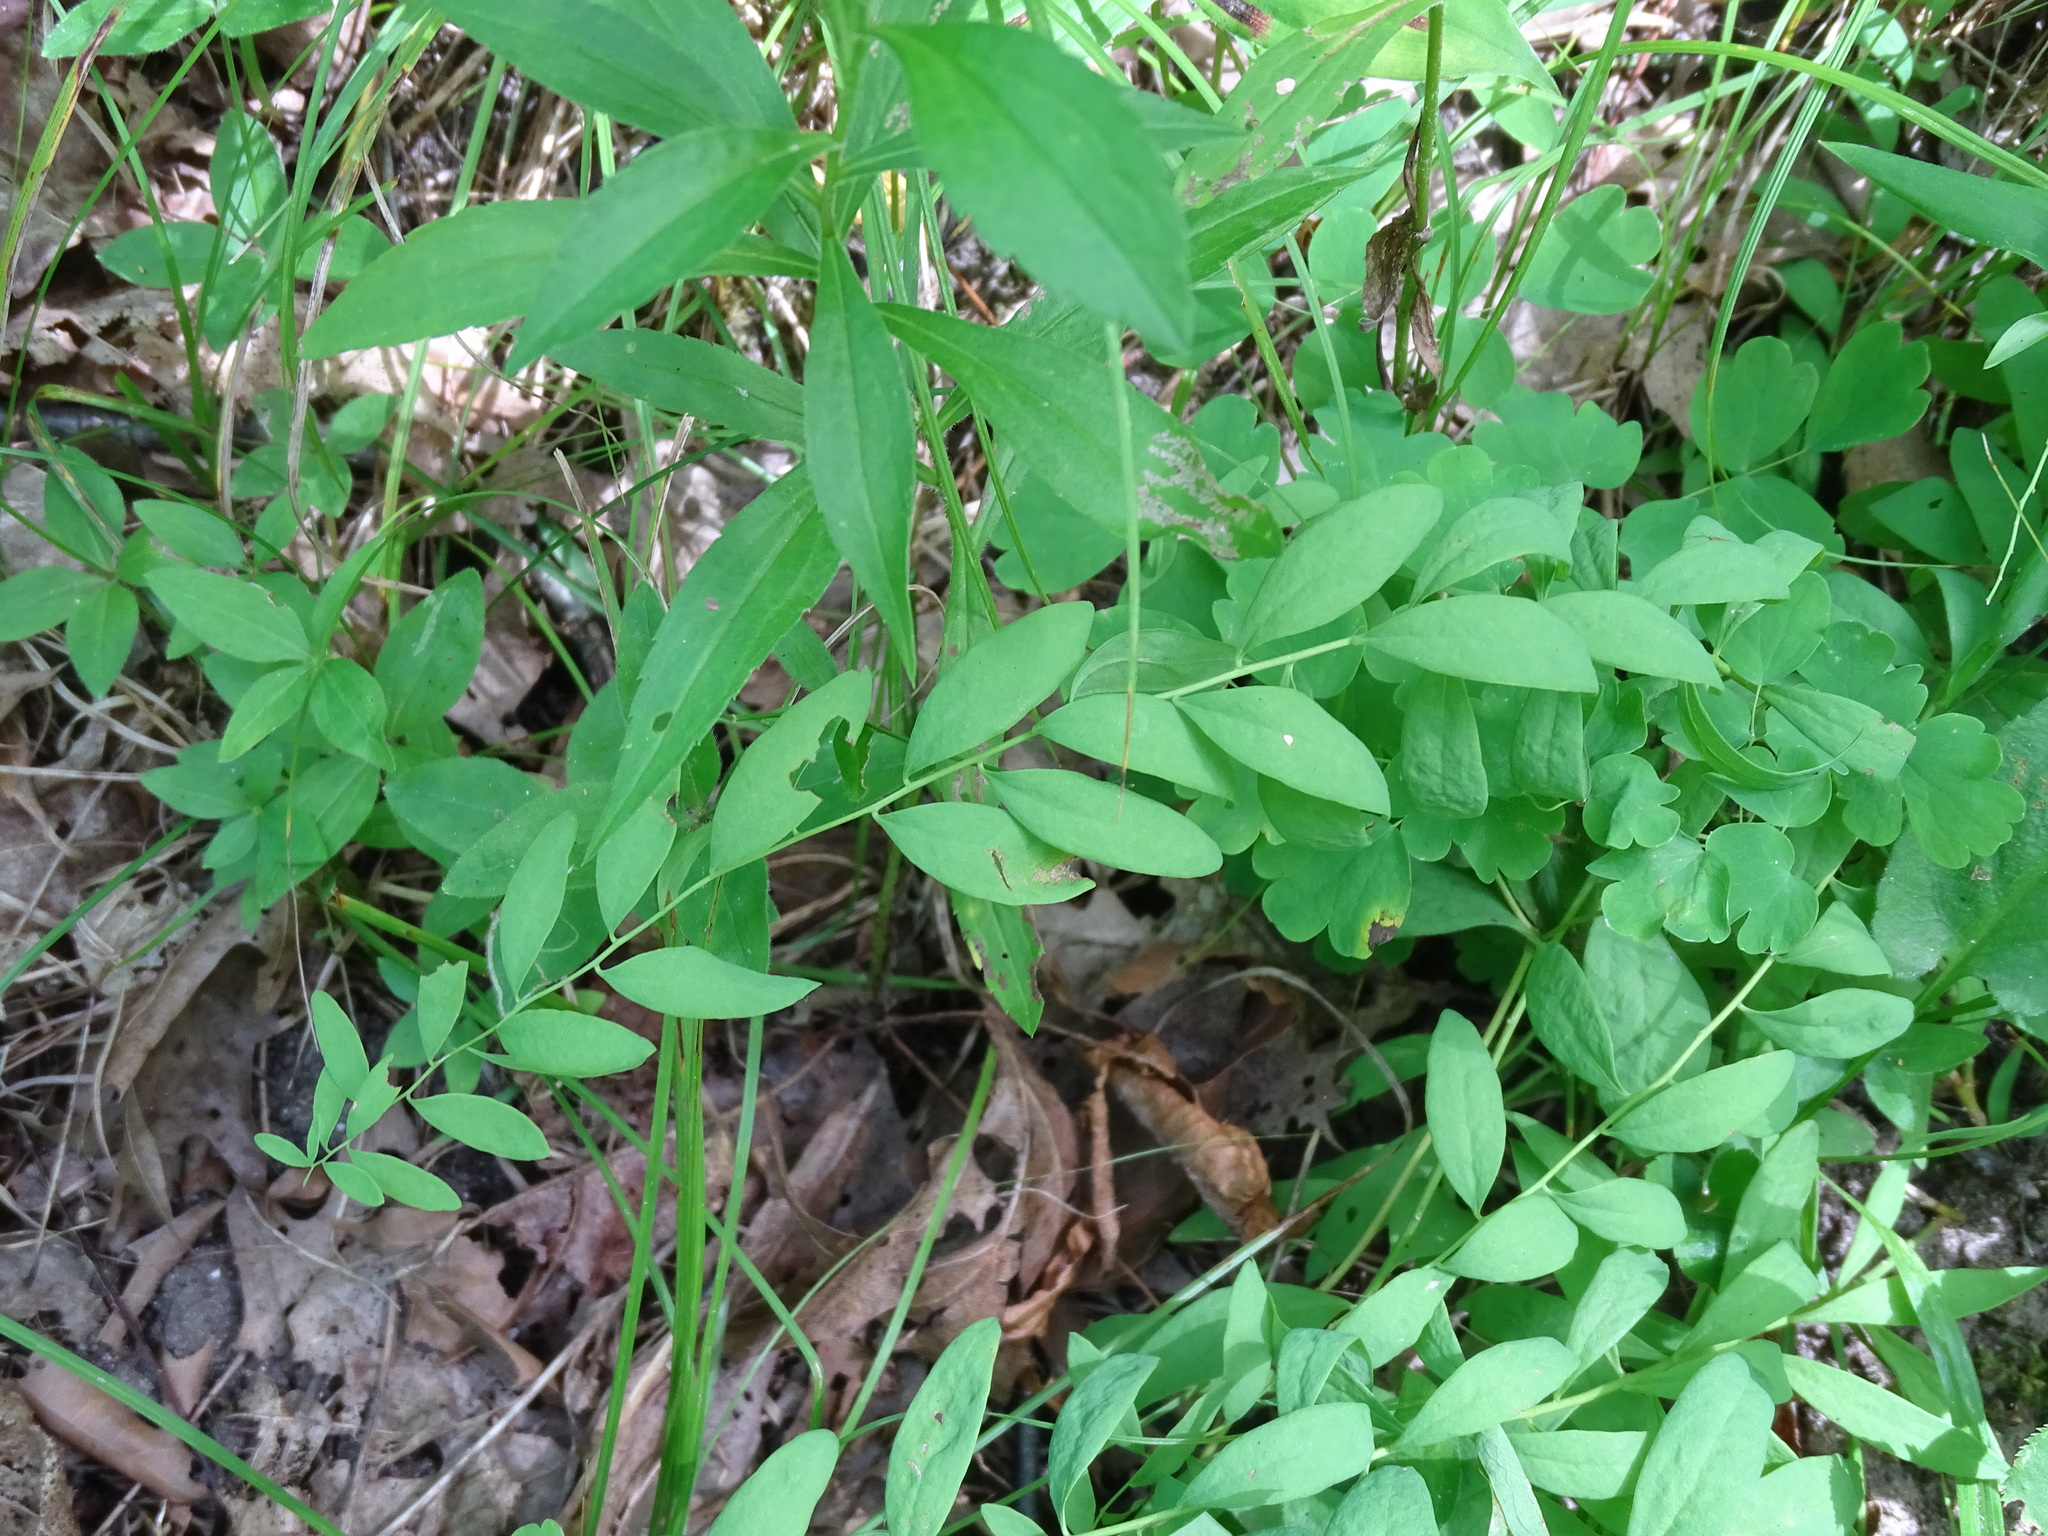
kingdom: Plantae
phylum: Tracheophyta
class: Magnoliopsida
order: Santalales
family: Comandraceae
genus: Comandra
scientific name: Comandra umbellata
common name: Bastard toadflax
